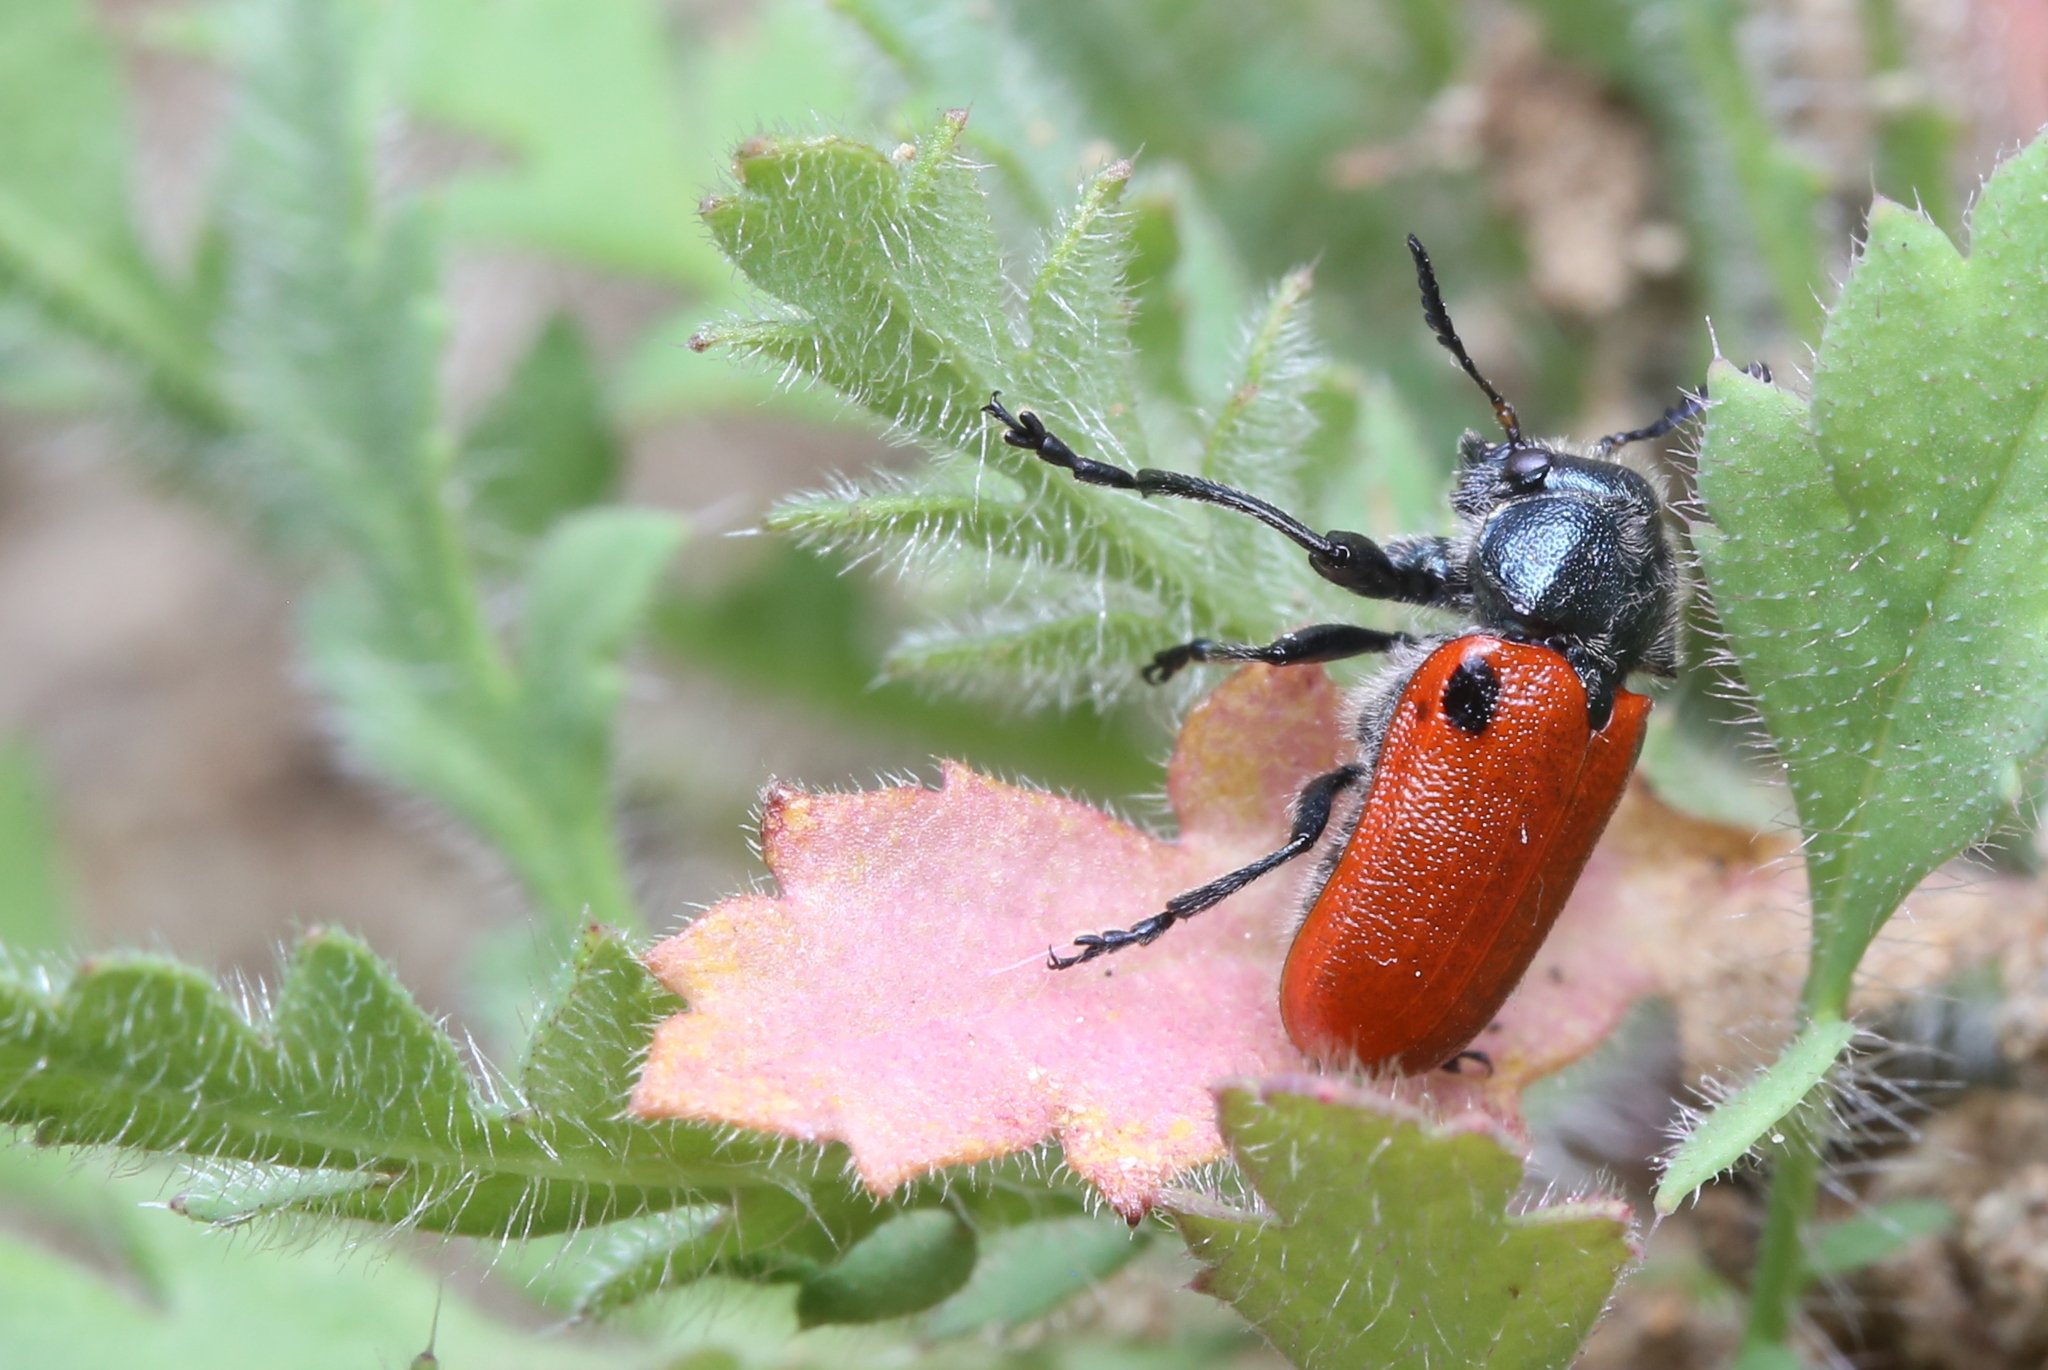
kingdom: Animalia
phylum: Arthropoda
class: Insecta
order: Coleoptera
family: Chrysomelidae
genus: Labidostomis
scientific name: Labidostomis rufa
